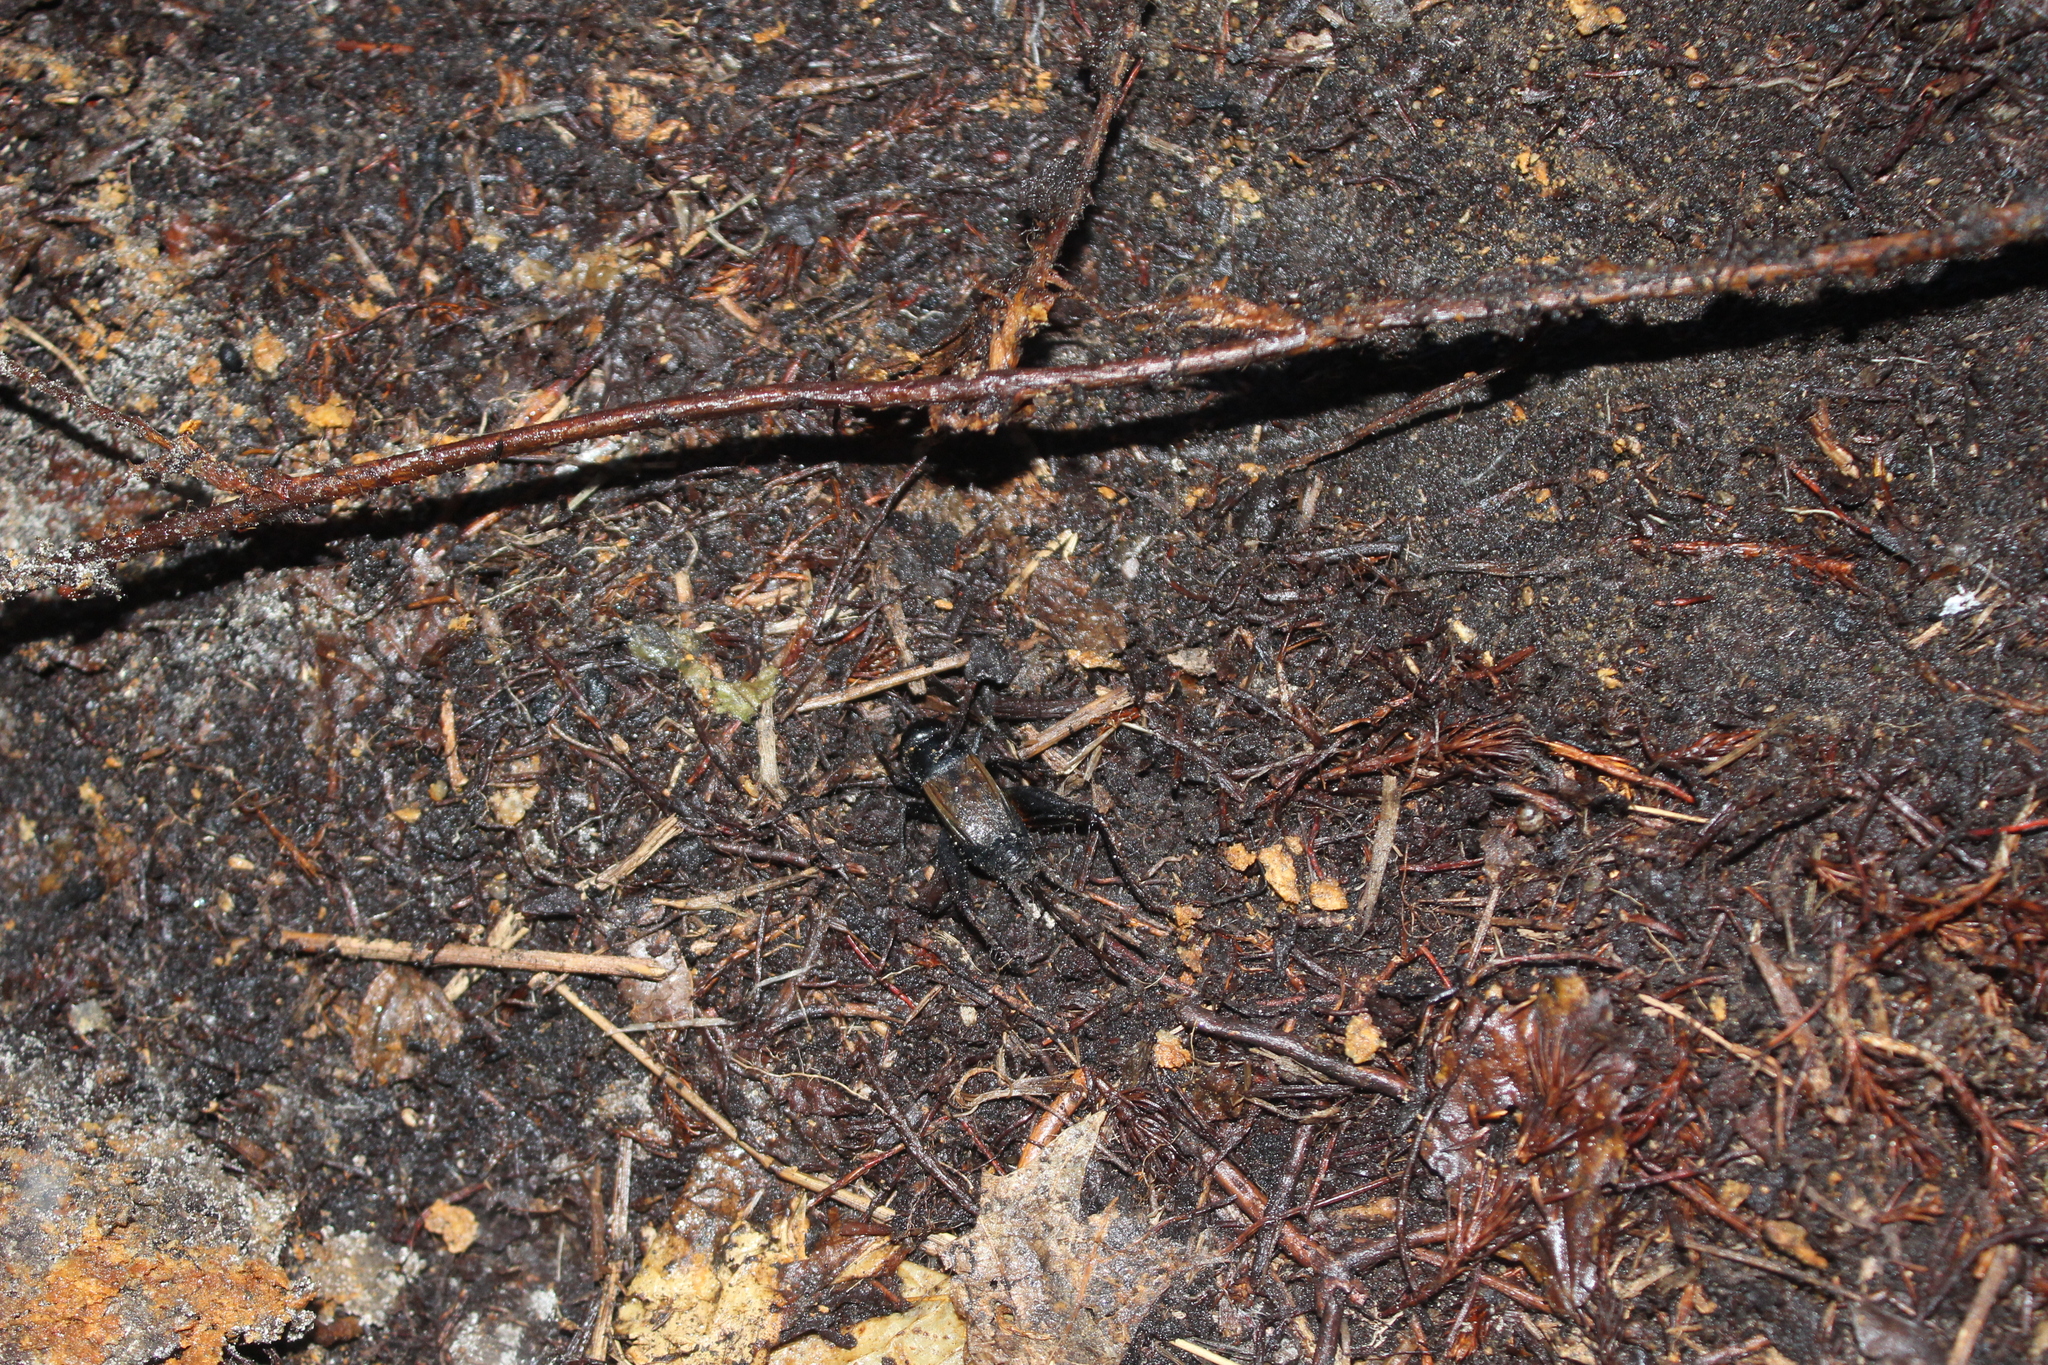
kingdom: Animalia
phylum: Arthropoda
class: Insecta
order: Orthoptera
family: Gryllidae
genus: Gryllus
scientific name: Gryllus veletis
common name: Spring field cricket
